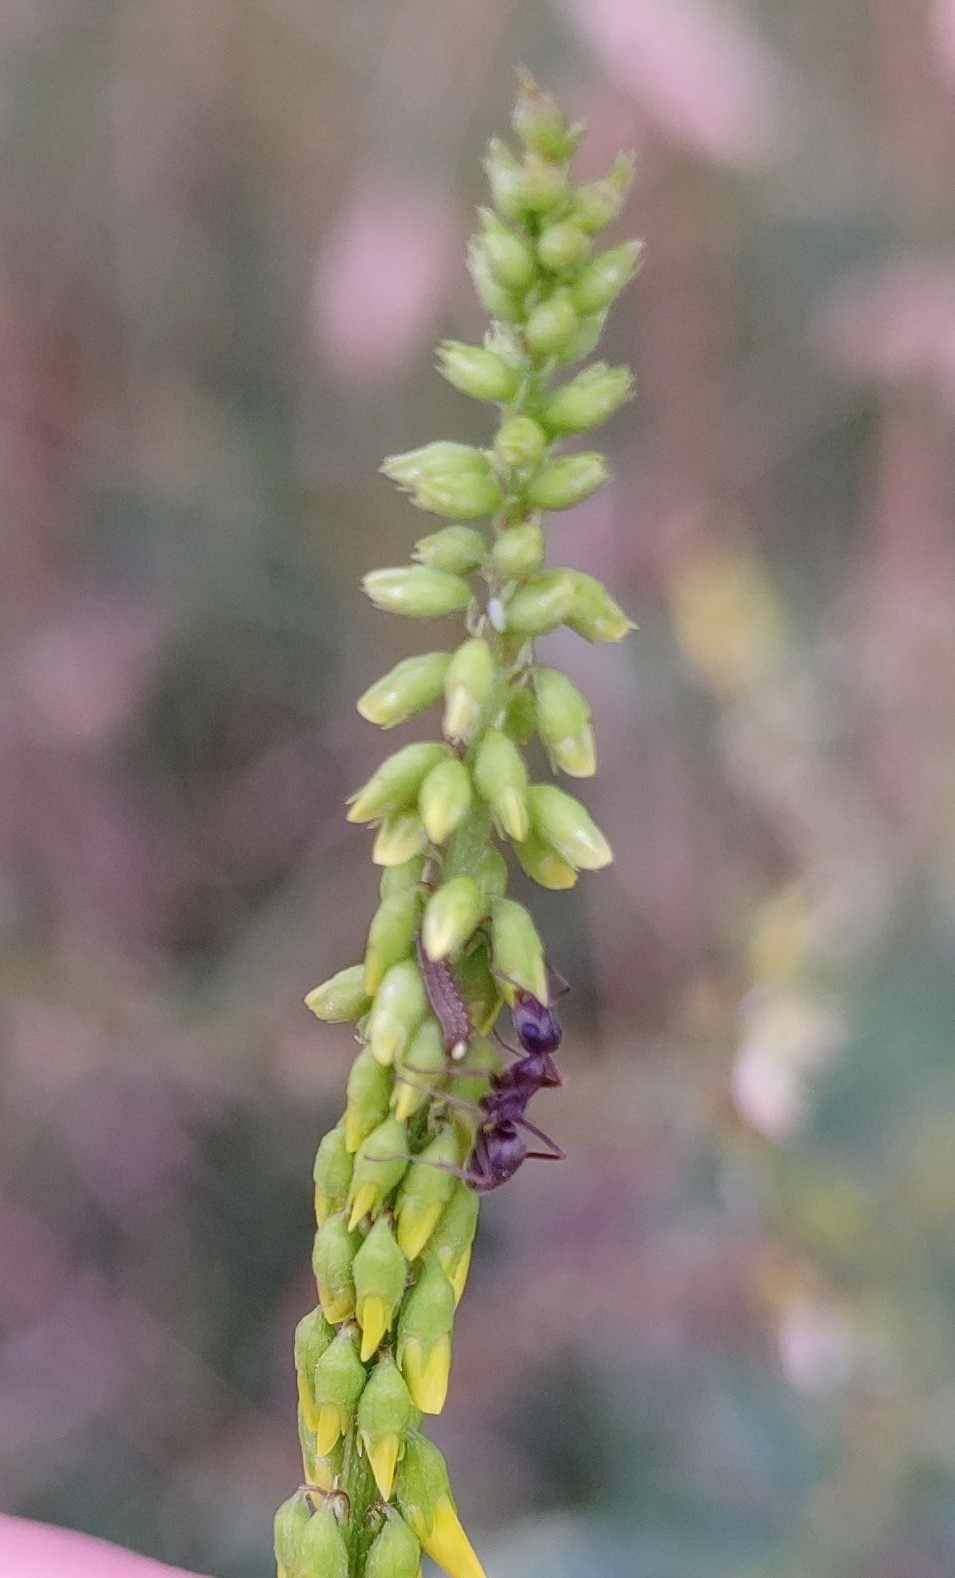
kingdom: Animalia
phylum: Arthropoda
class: Insecta
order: Lepidoptera
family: Lycaenidae
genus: Lycaeides
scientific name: Lycaeides idas
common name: Northern blue
